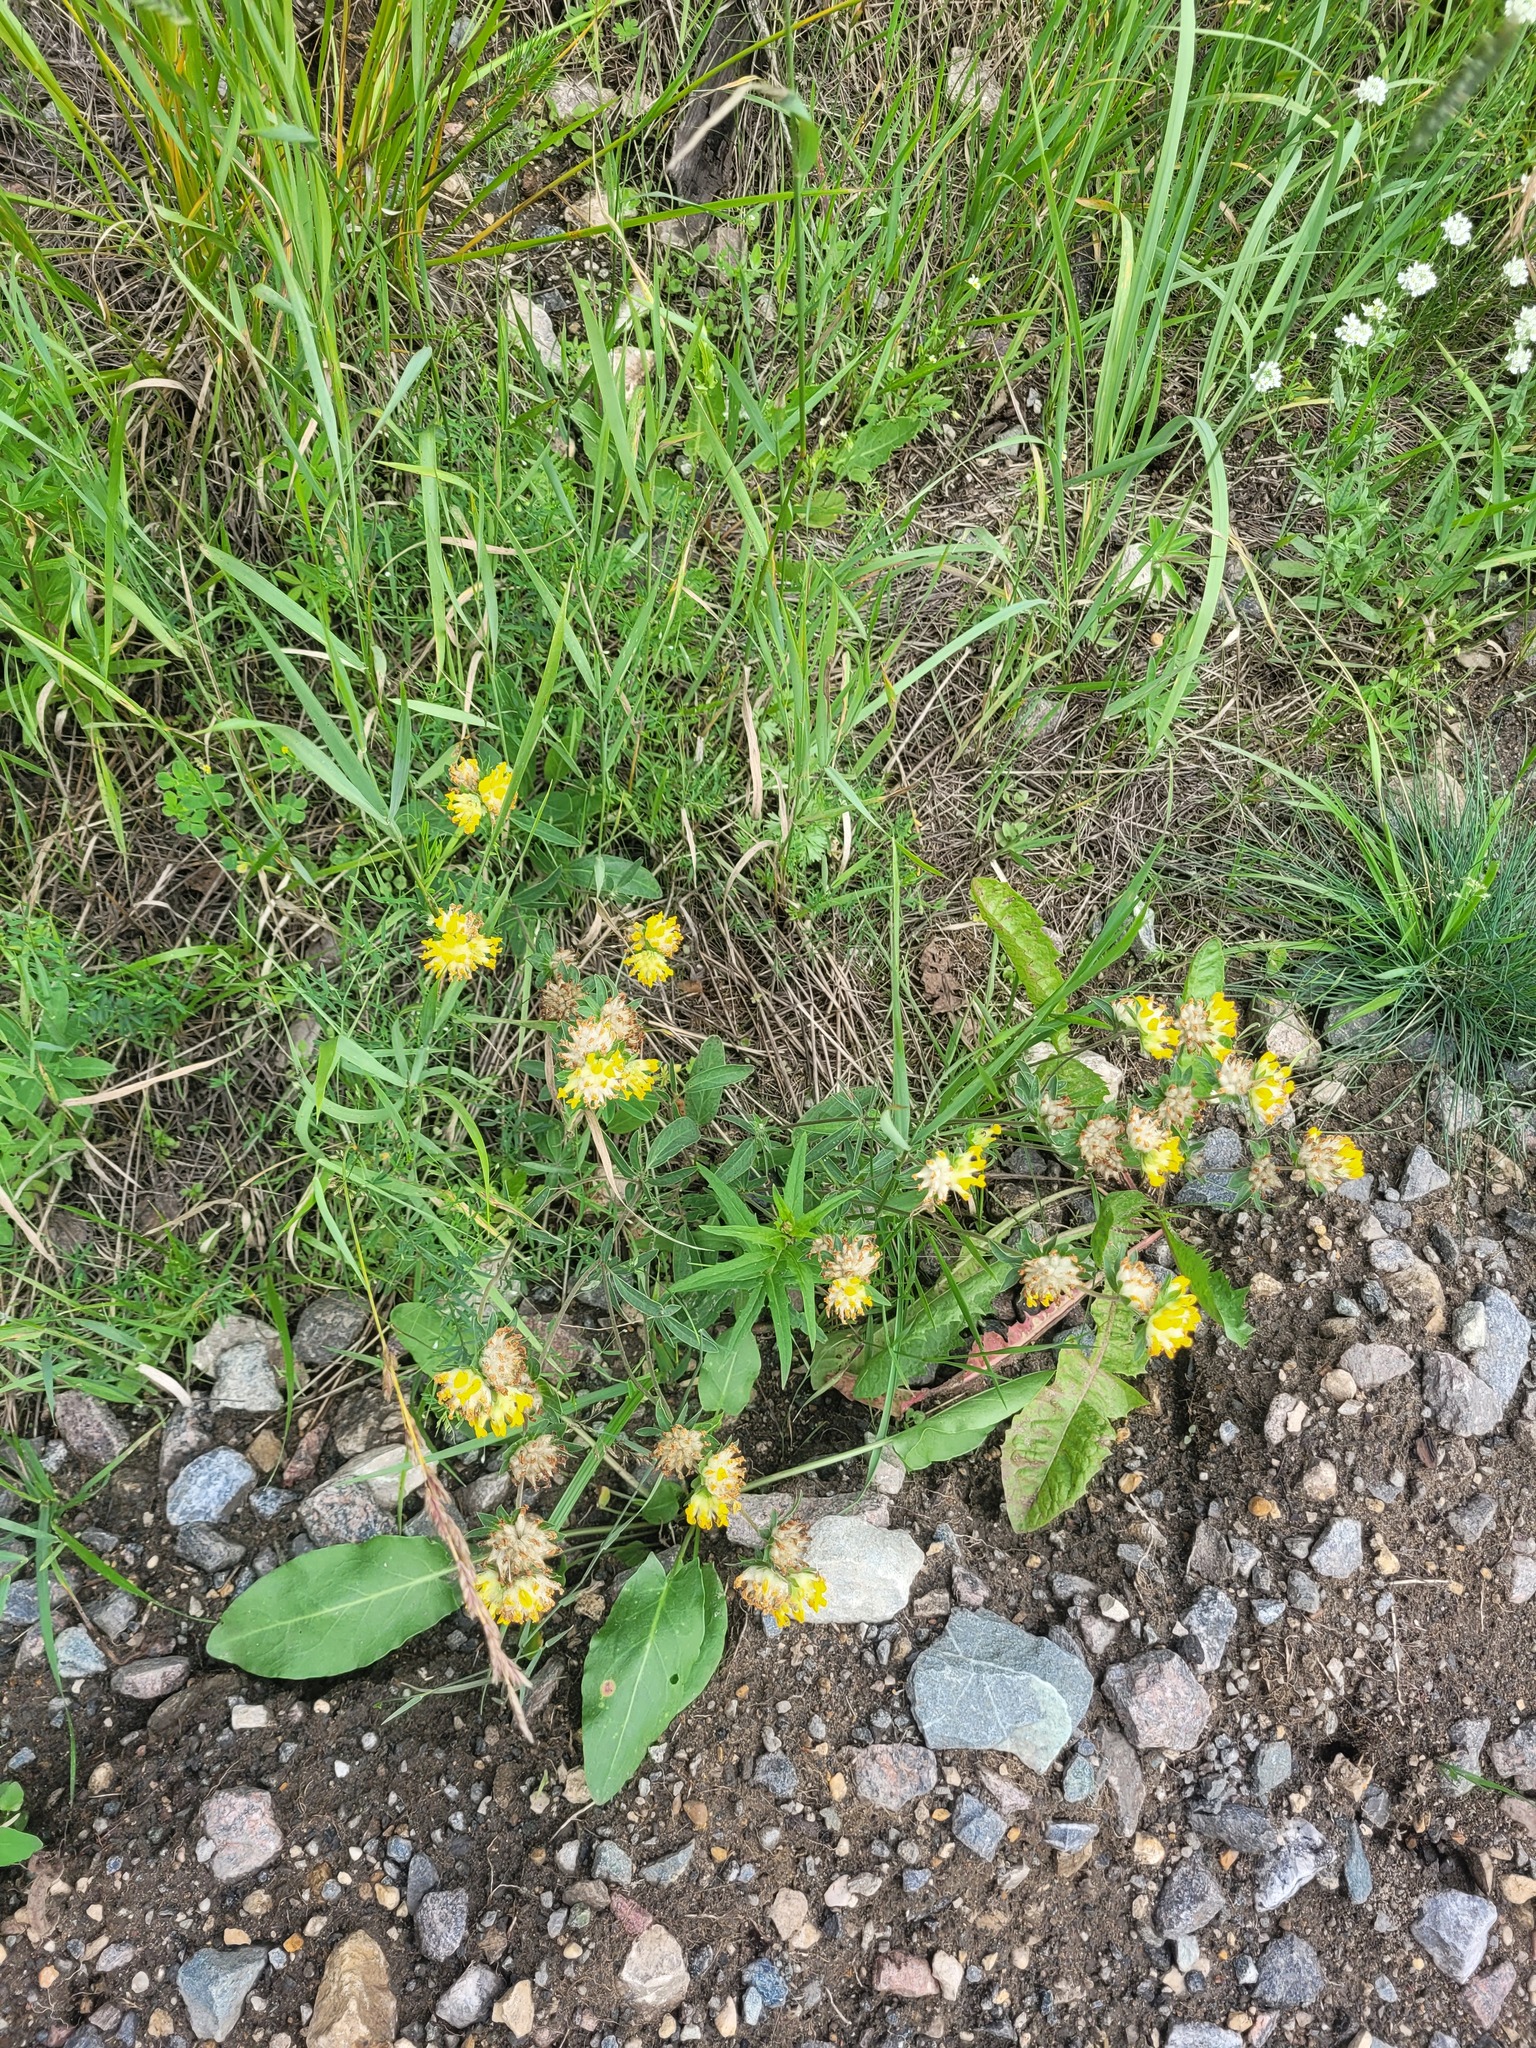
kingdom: Plantae
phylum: Tracheophyta
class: Magnoliopsida
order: Fabales
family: Fabaceae
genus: Anthyllis
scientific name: Anthyllis vulneraria
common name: Kidney vetch
